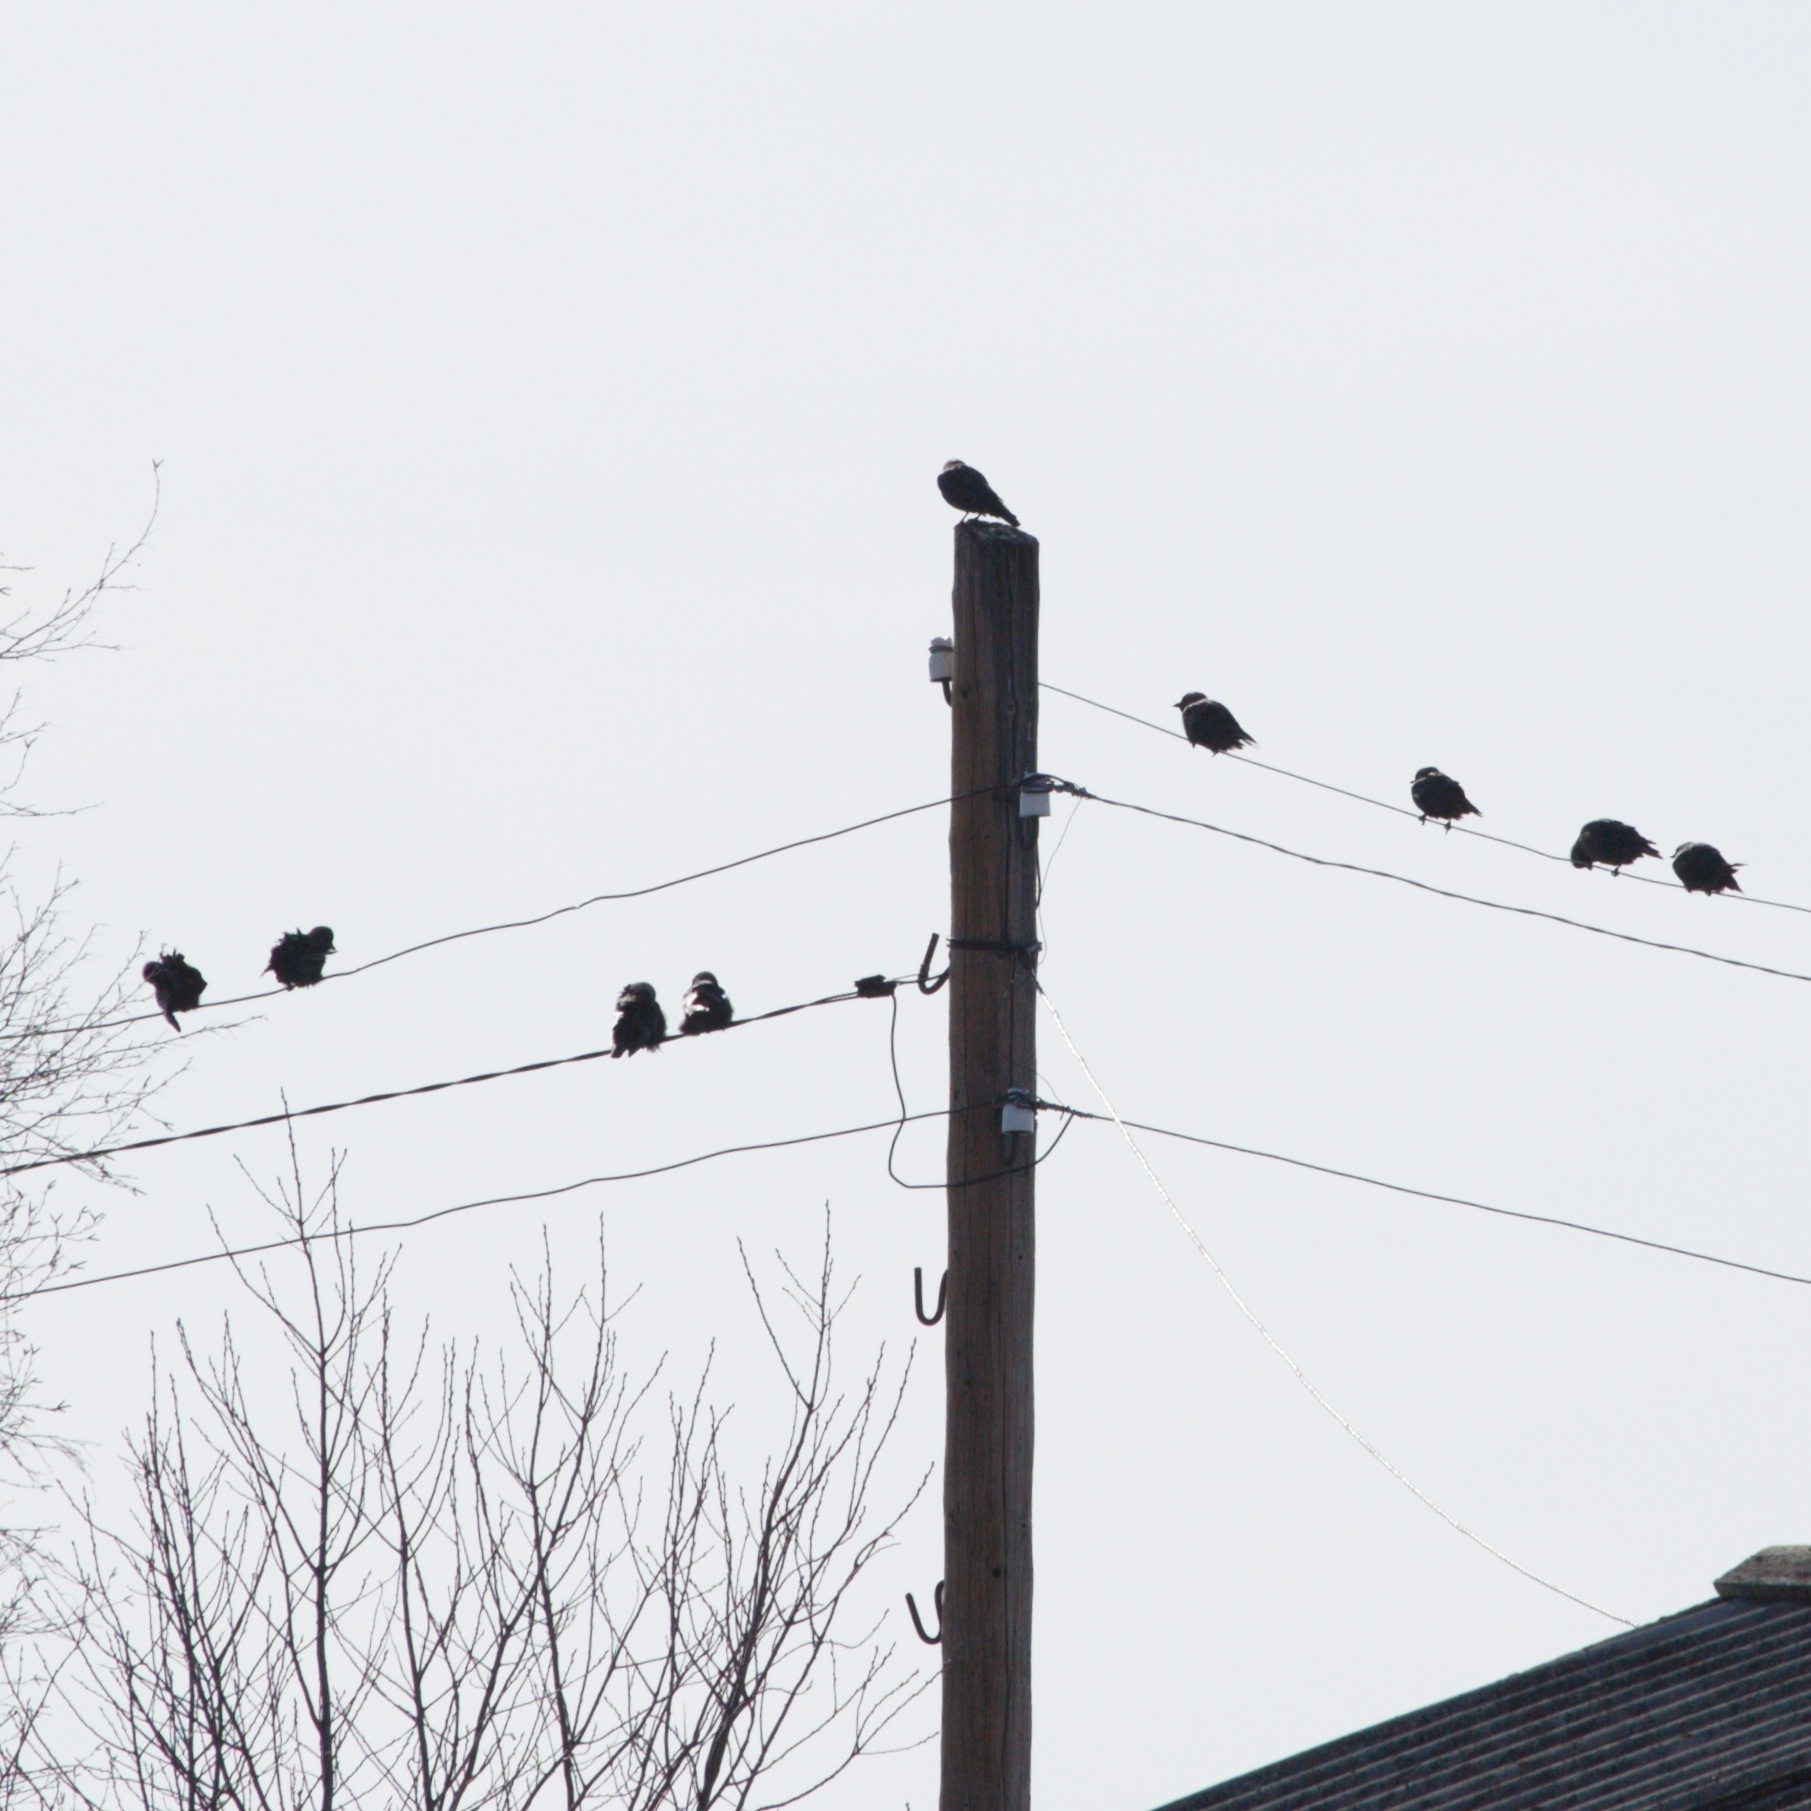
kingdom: Animalia
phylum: Chordata
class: Aves
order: Passeriformes
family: Corvidae
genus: Coloeus
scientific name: Coloeus monedula
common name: Western jackdaw
